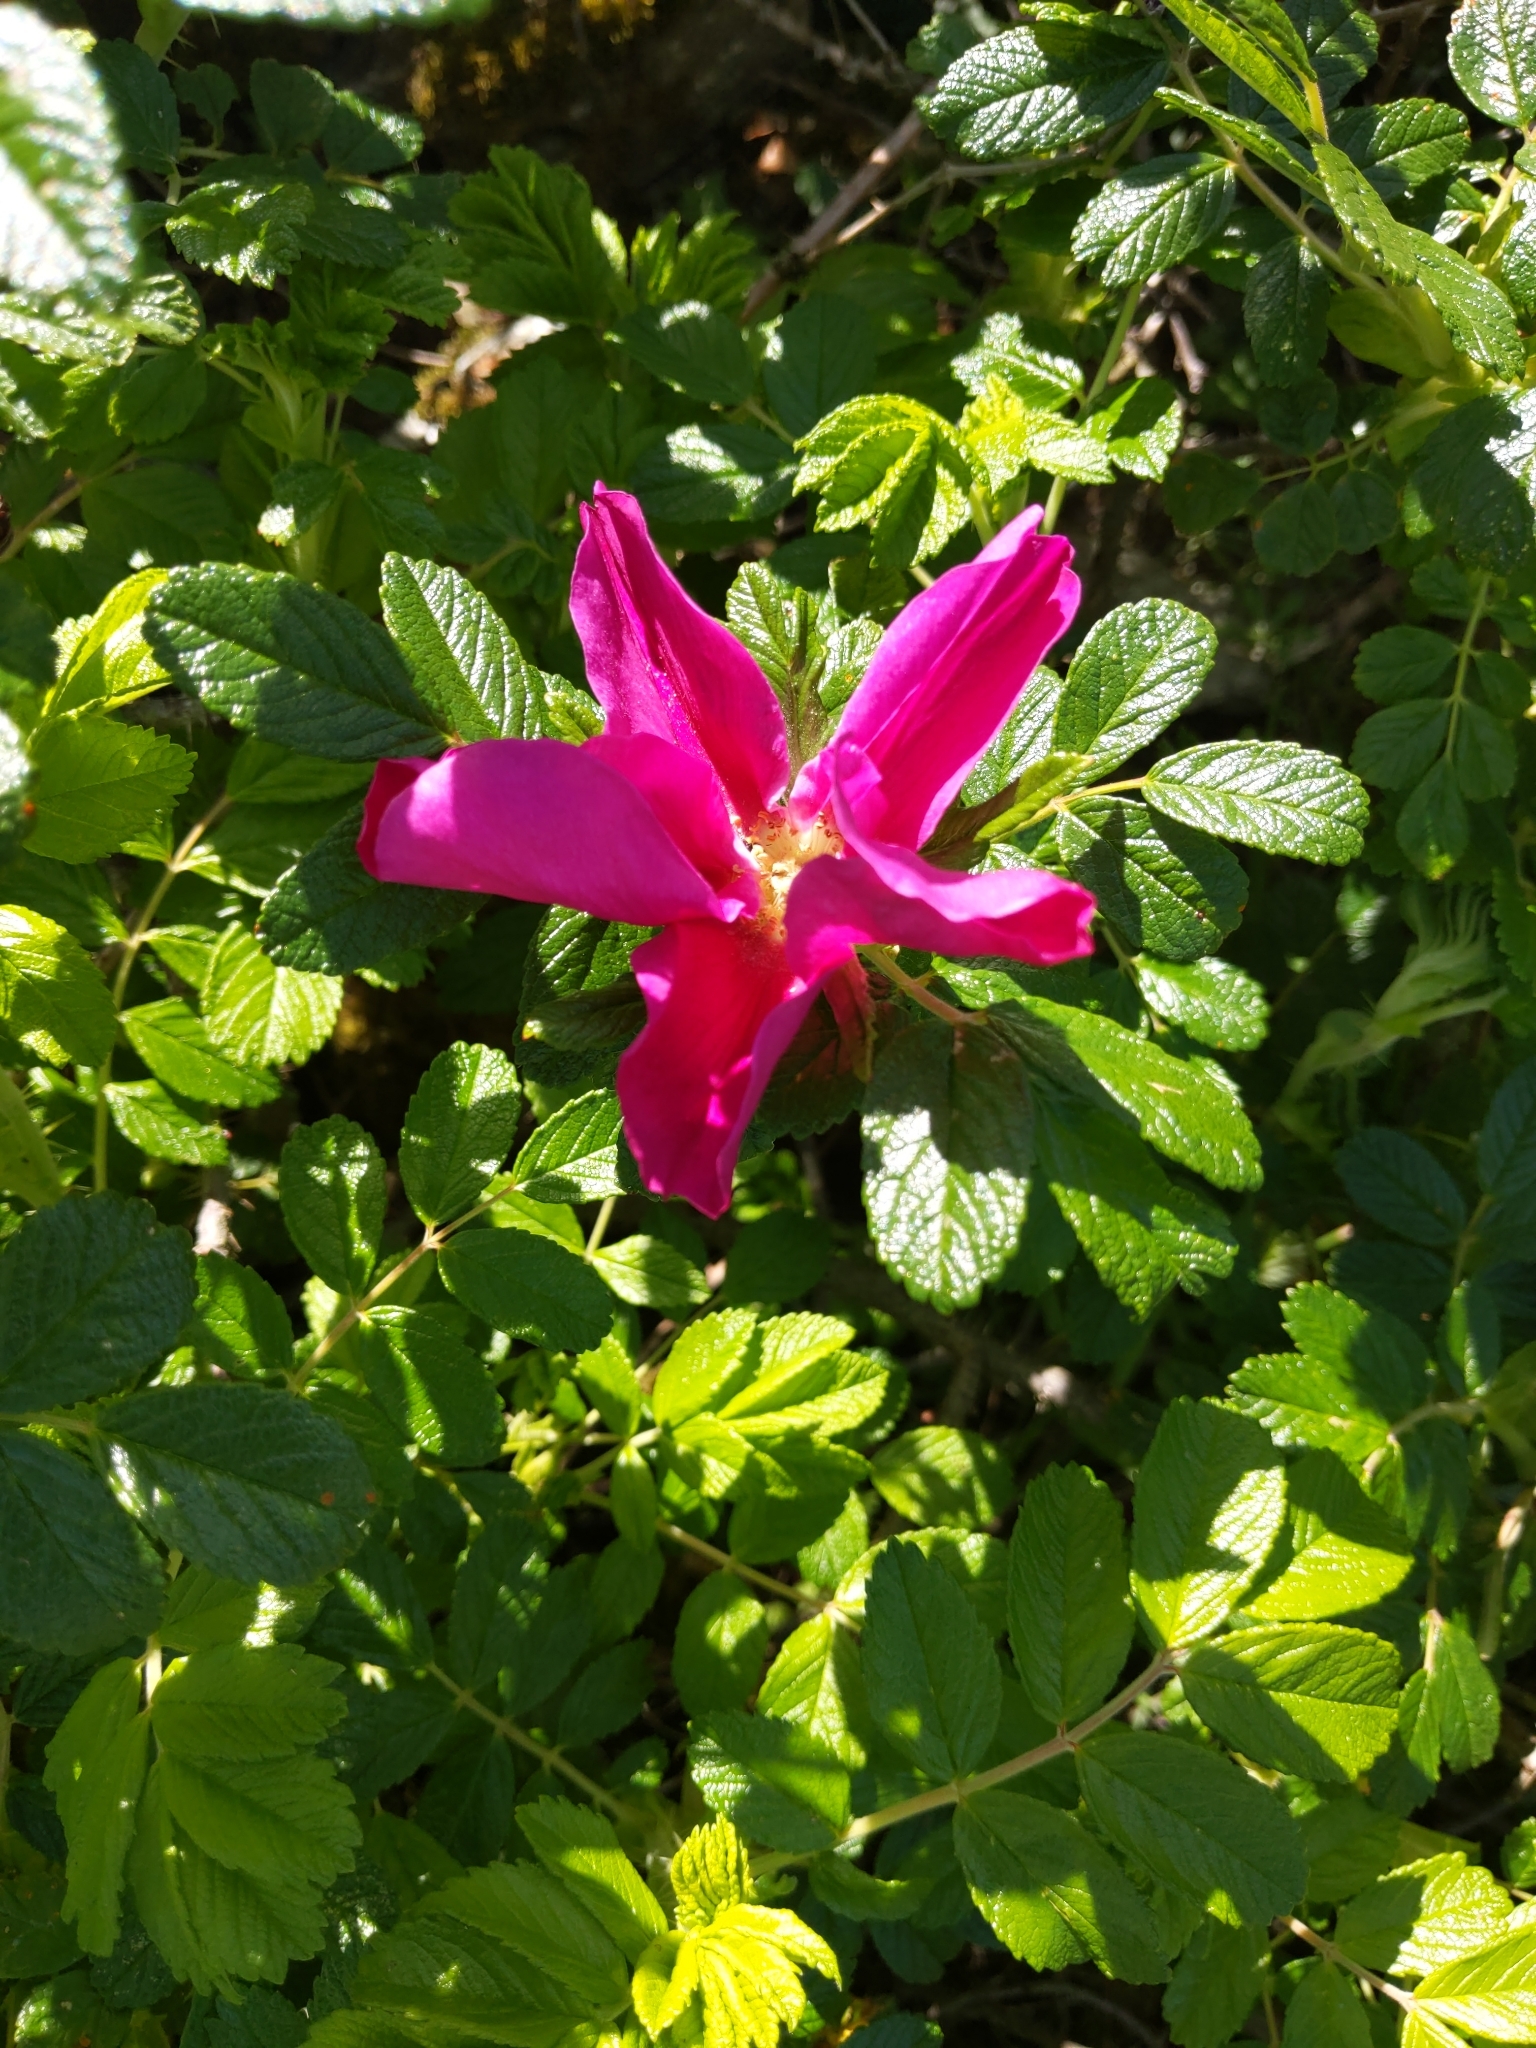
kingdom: Plantae
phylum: Tracheophyta
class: Magnoliopsida
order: Rosales
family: Rosaceae
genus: Rosa
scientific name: Rosa rugosa
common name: Japanese rose
